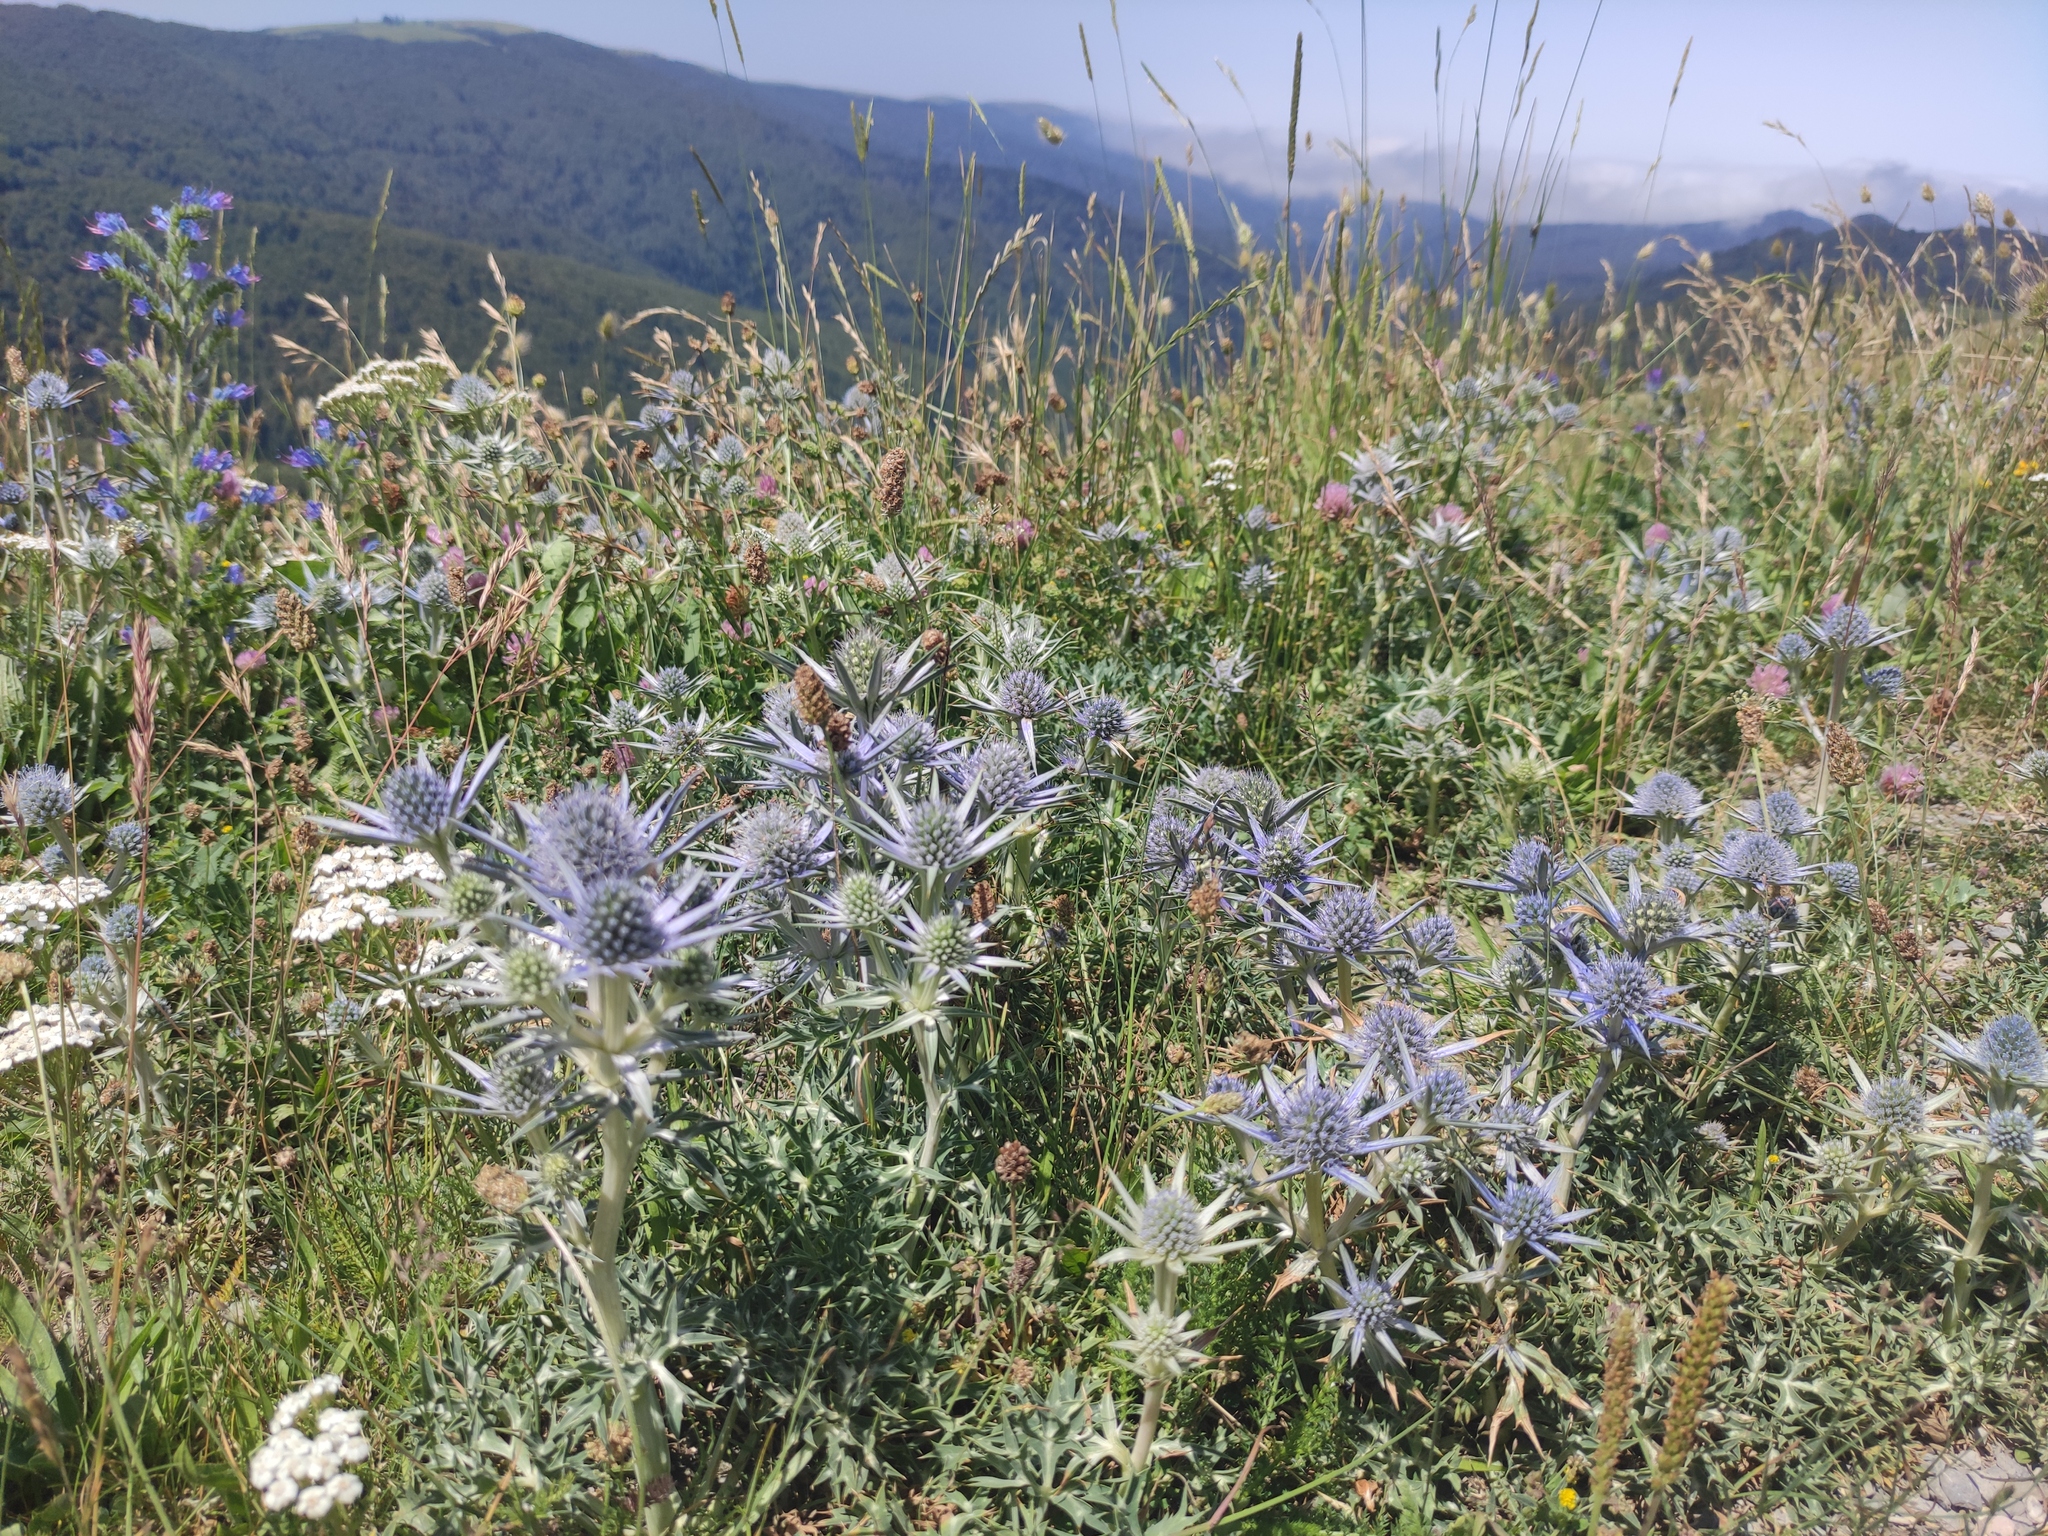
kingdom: Plantae
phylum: Tracheophyta
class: Magnoliopsida
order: Apiales
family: Apiaceae
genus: Eryngium
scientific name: Eryngium bourgatii
